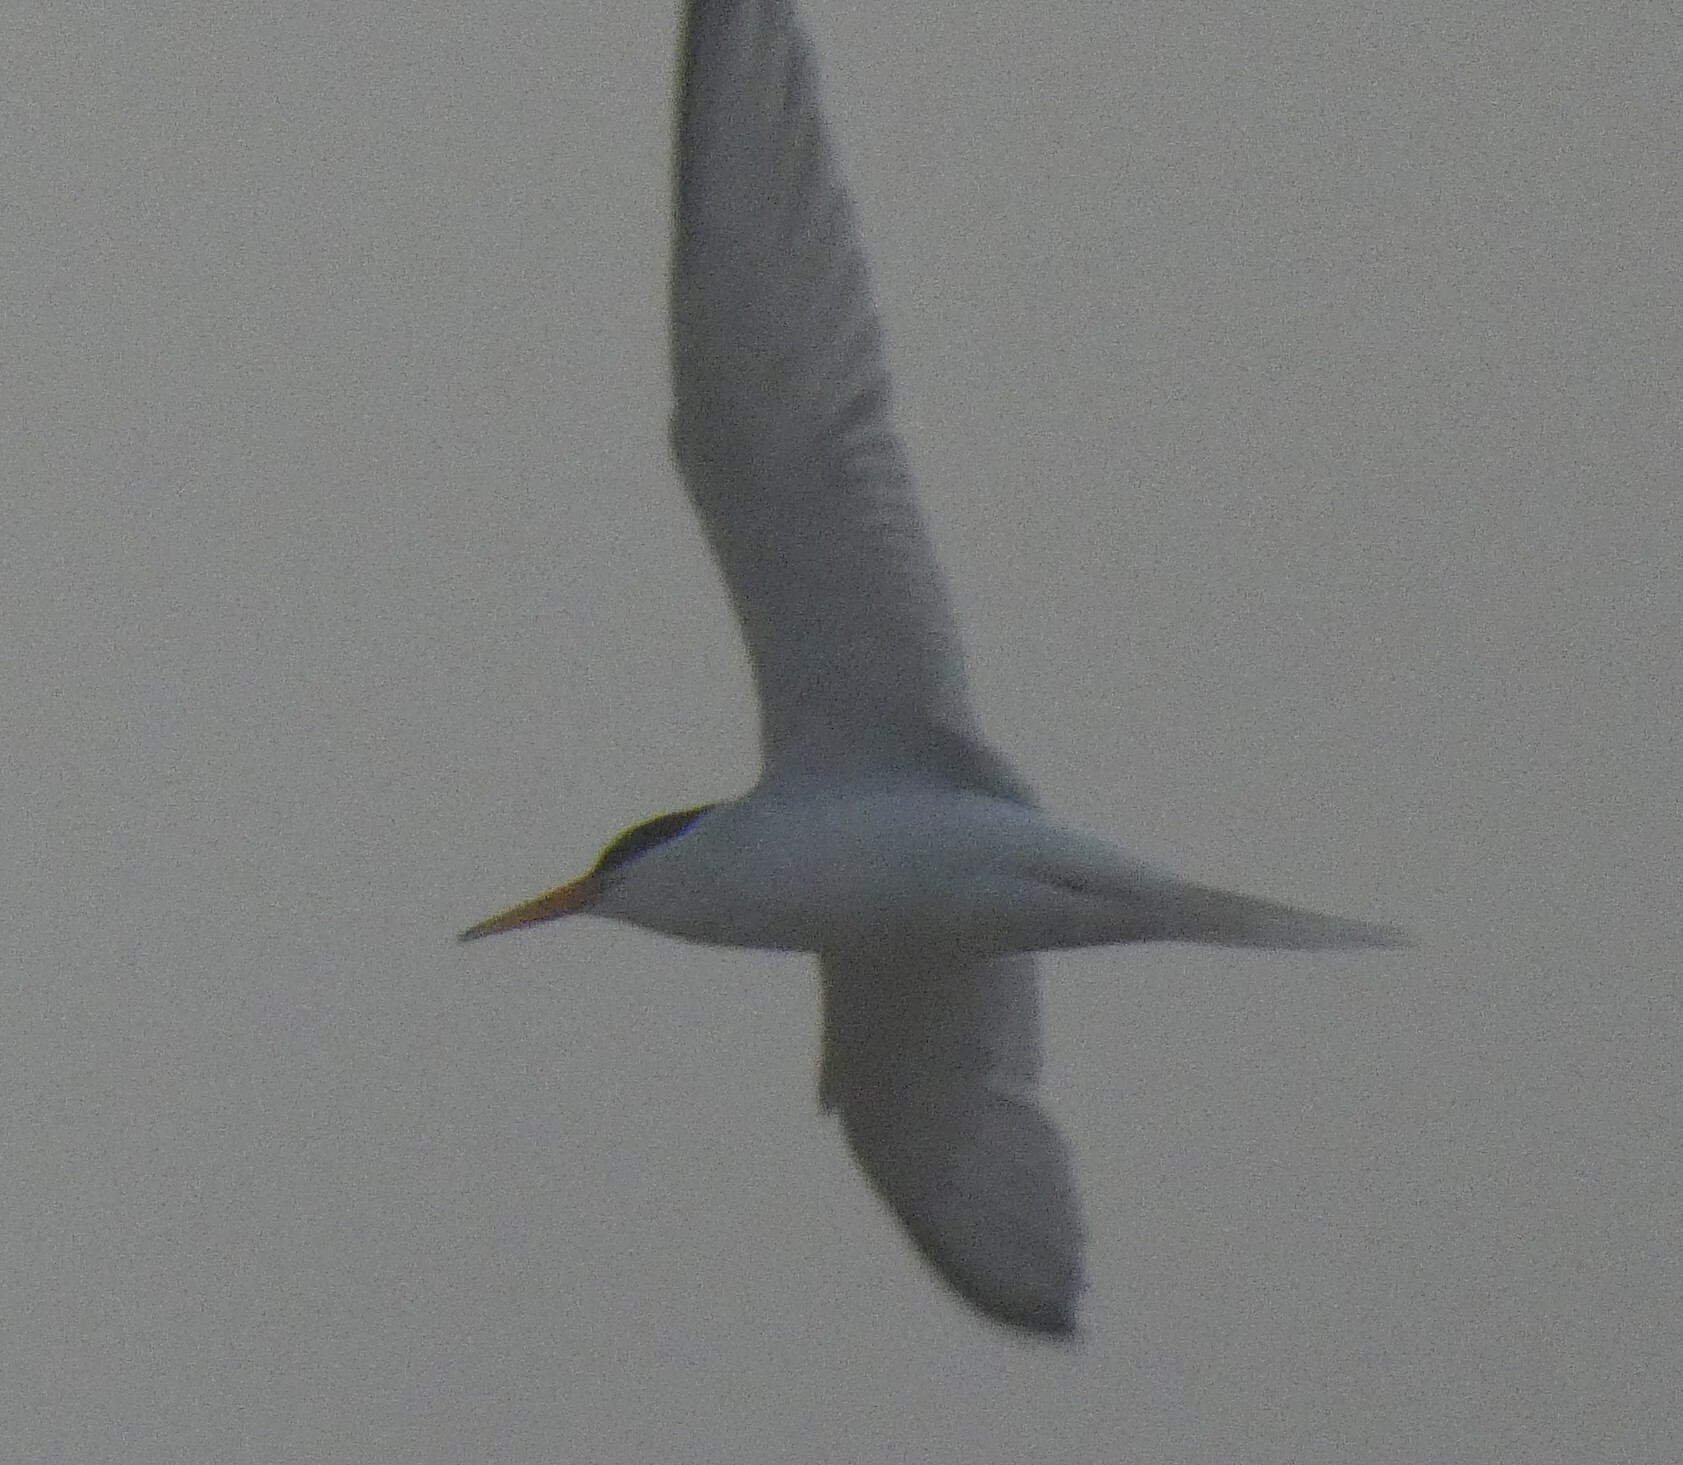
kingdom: Animalia
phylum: Chordata
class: Aves
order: Charadriiformes
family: Laridae
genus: Sternula
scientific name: Sternula albifrons
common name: Little tern
